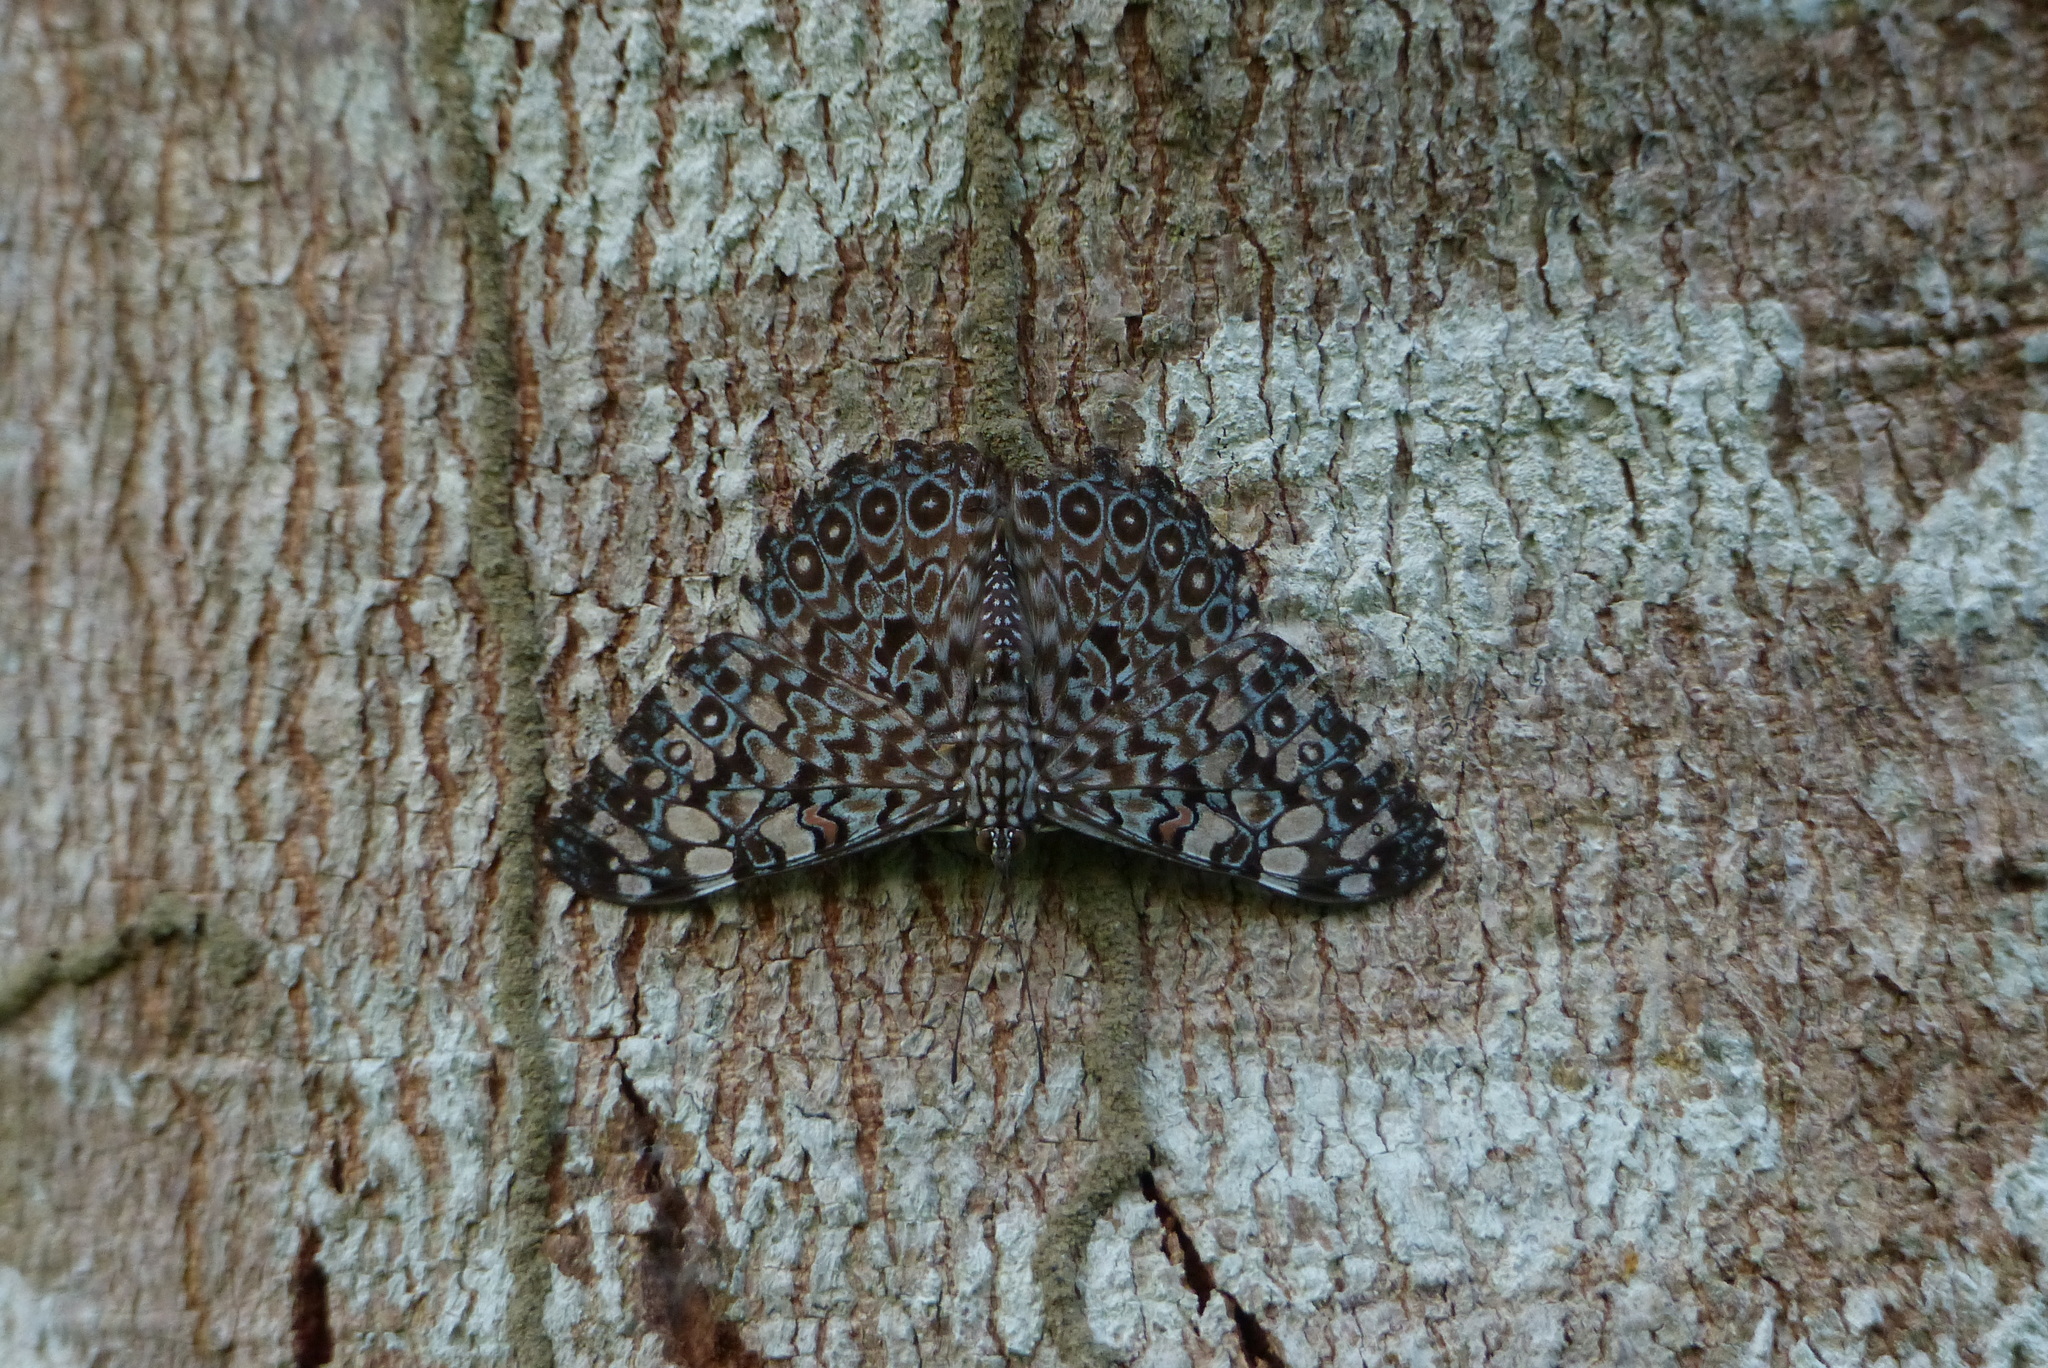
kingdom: Animalia
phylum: Arthropoda
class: Insecta
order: Lepidoptera
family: Nymphalidae
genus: Hamadryas
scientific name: Hamadryas feronia
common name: Variable cracker
